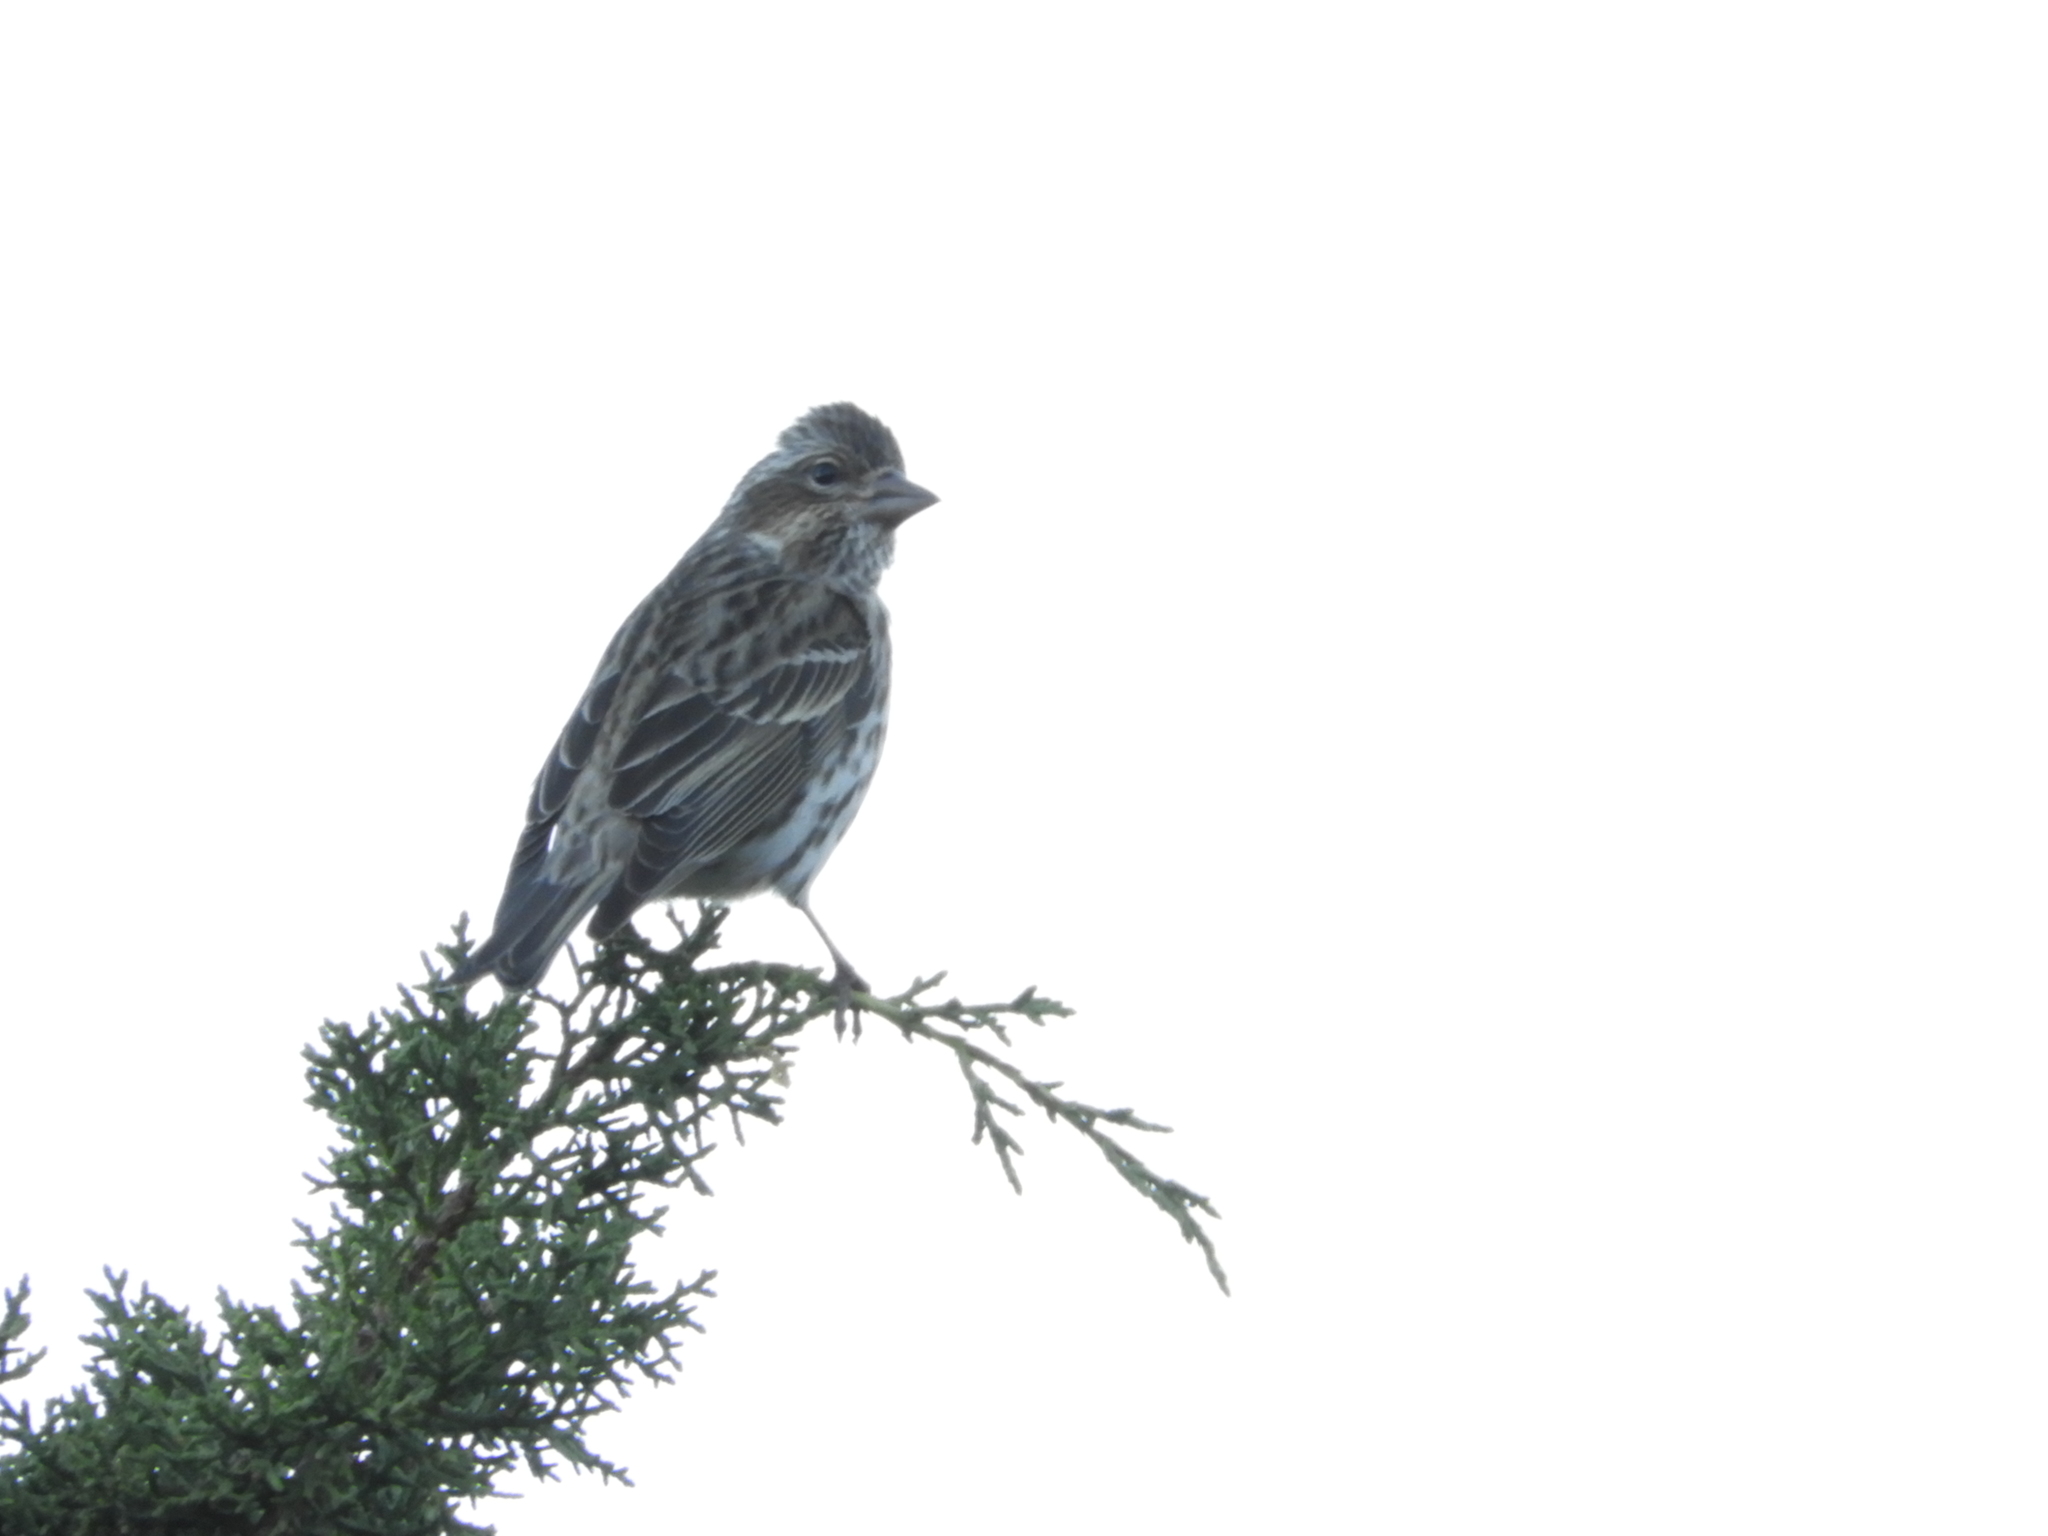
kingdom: Animalia
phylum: Chordata
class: Aves
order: Passeriformes
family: Fringillidae
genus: Haemorhous
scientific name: Haemorhous cassinii
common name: Cassin's finch
